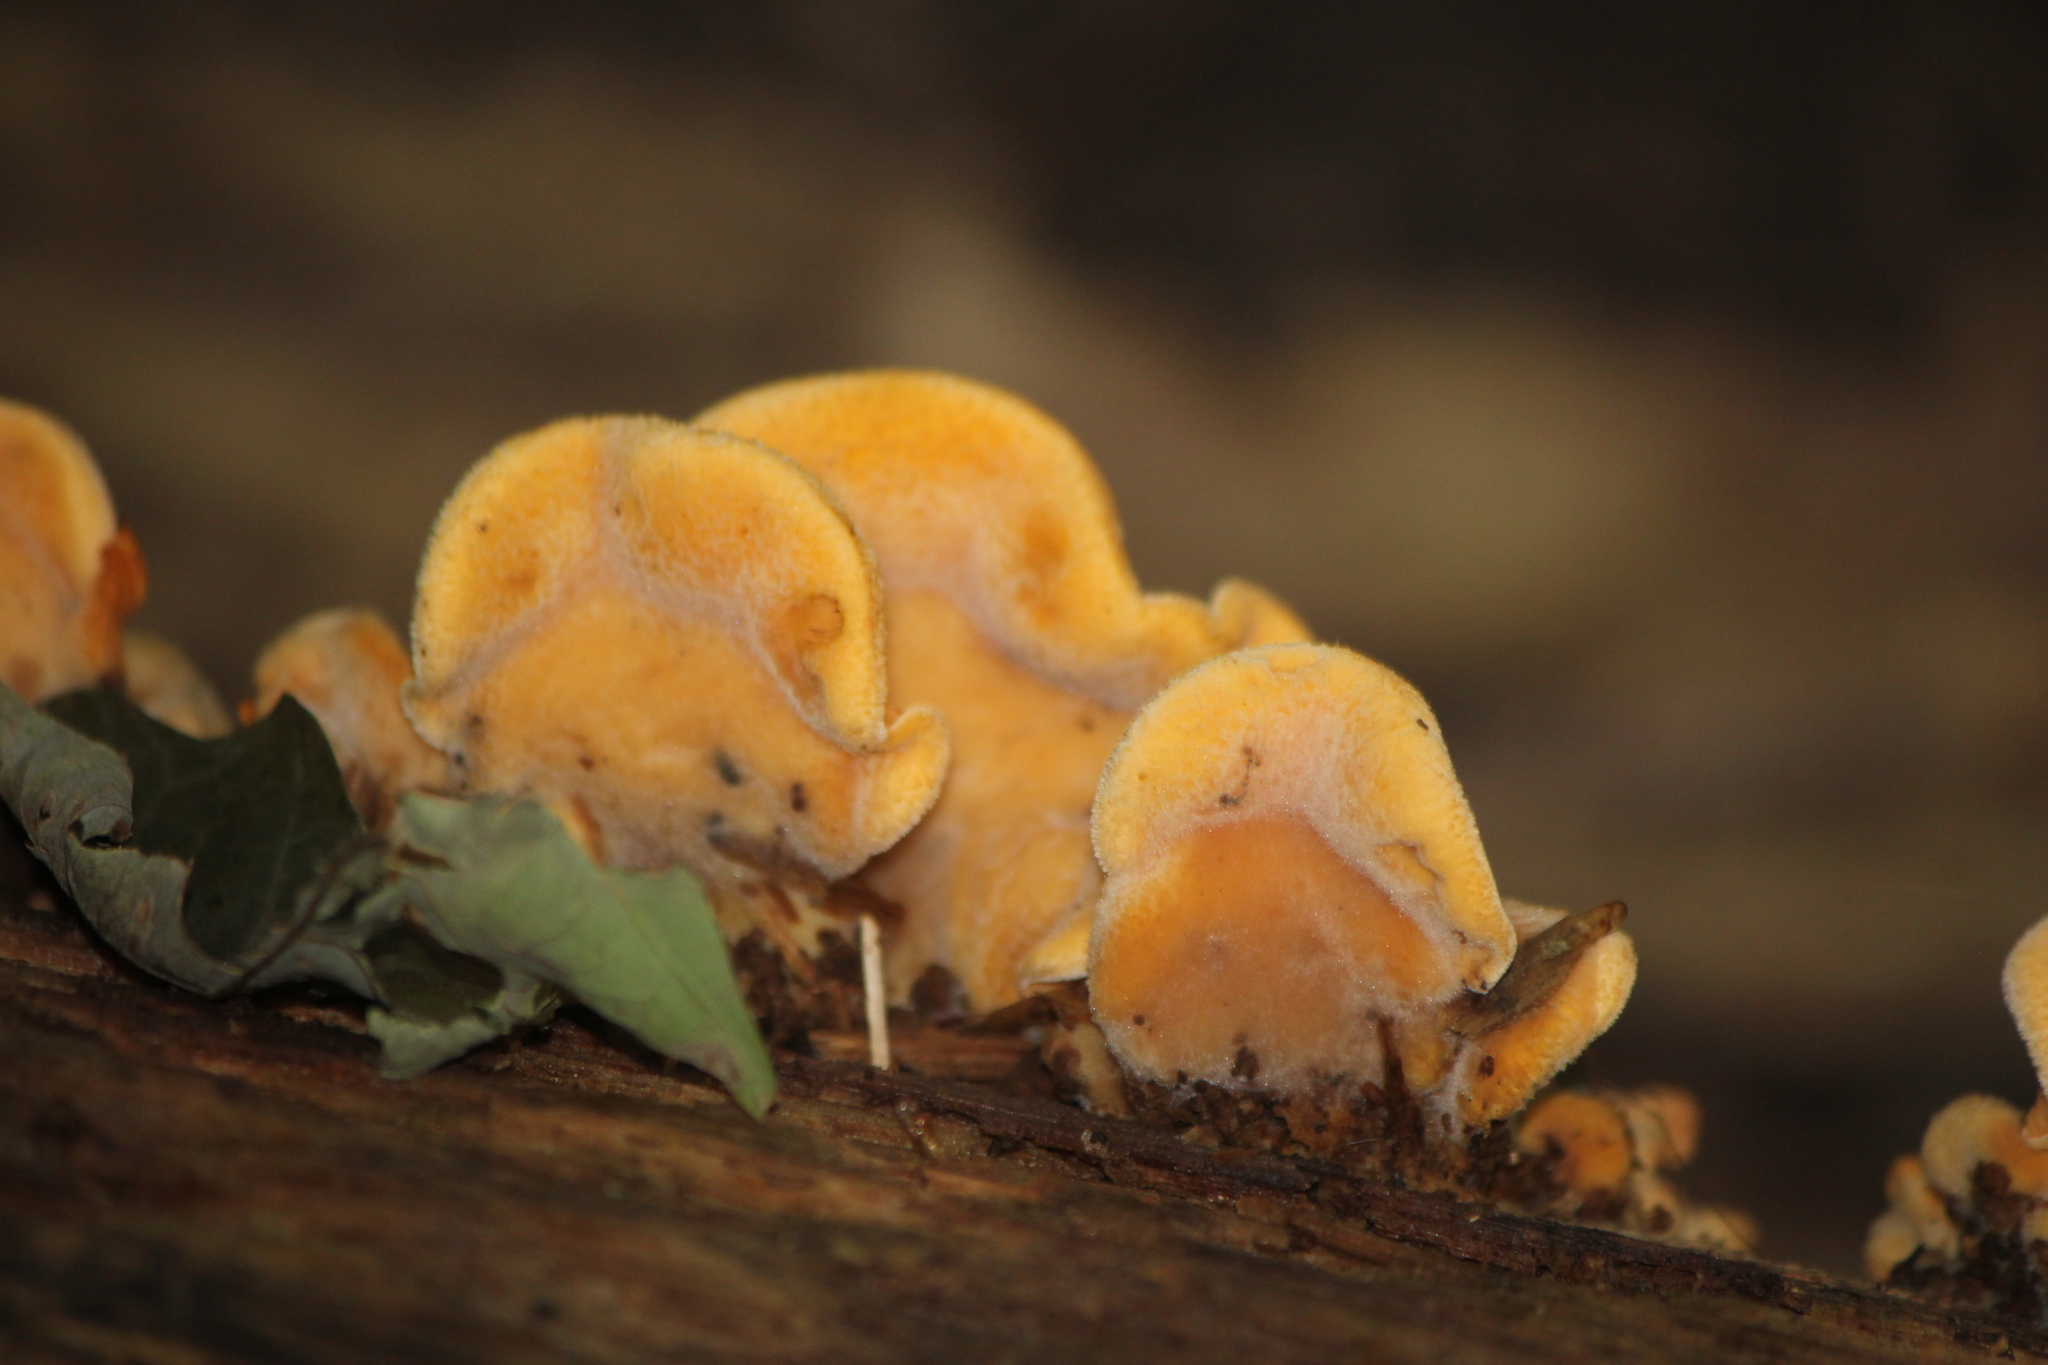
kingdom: Fungi
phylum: Basidiomycota
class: Agaricomycetes
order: Agaricales
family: Phyllotopsidaceae
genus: Phyllotopsis
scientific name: Phyllotopsis nidulans
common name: Orange mock oyster
